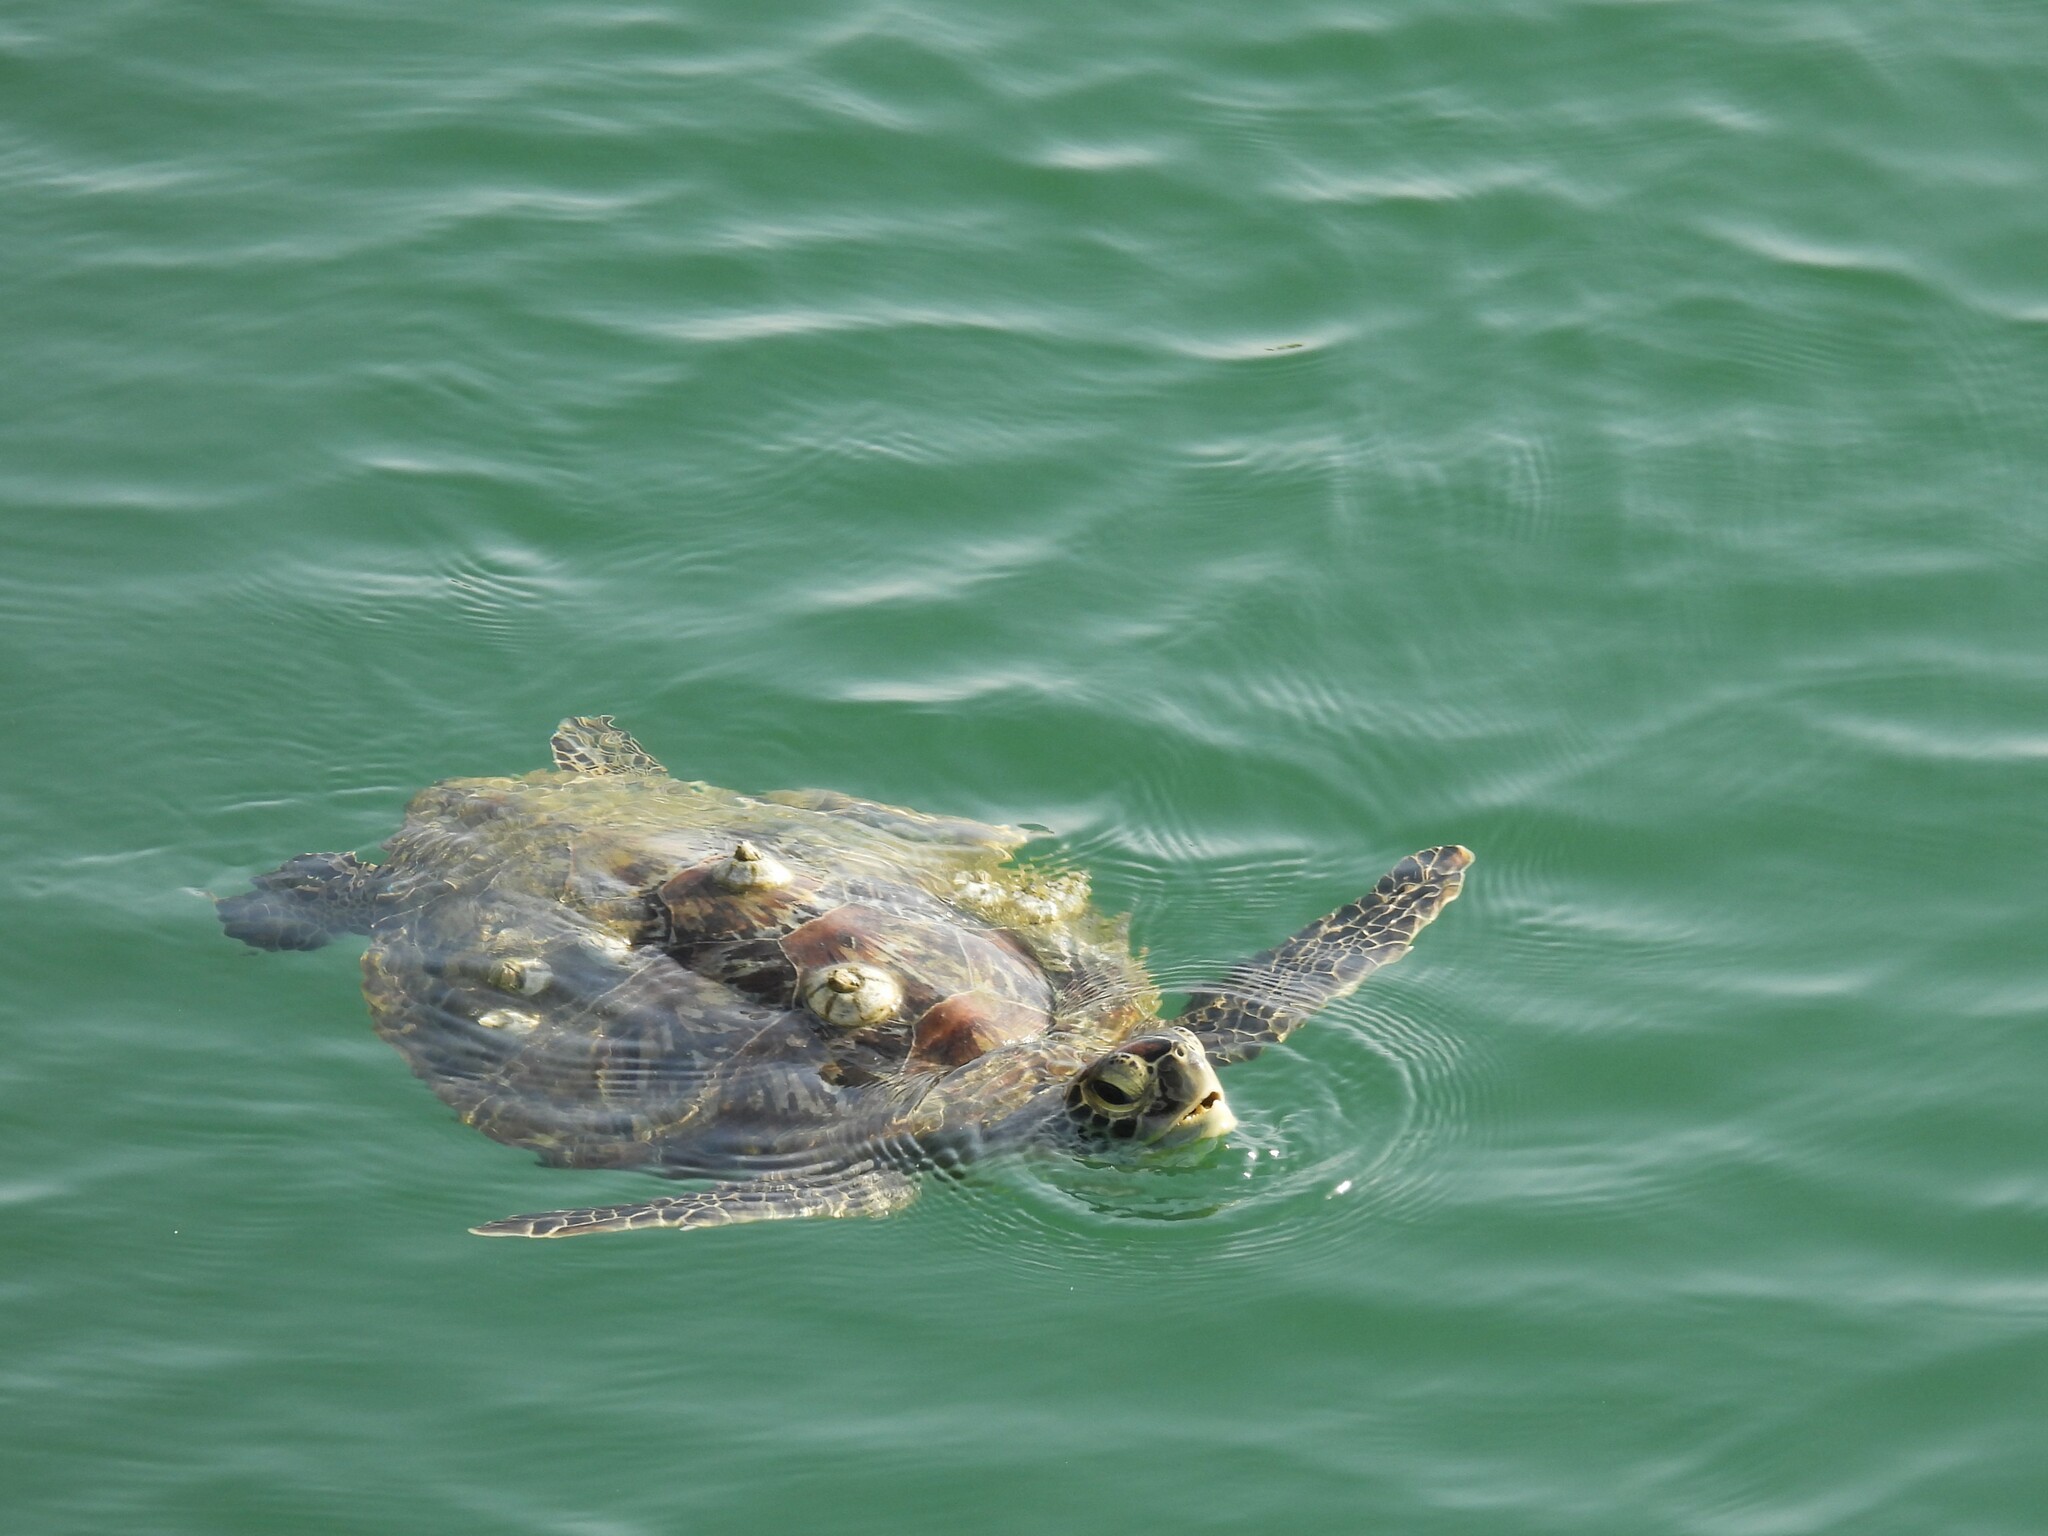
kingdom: Animalia
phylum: Chordata
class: Testudines
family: Cheloniidae
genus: Chelonia
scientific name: Chelonia mydas
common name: Green turtle
